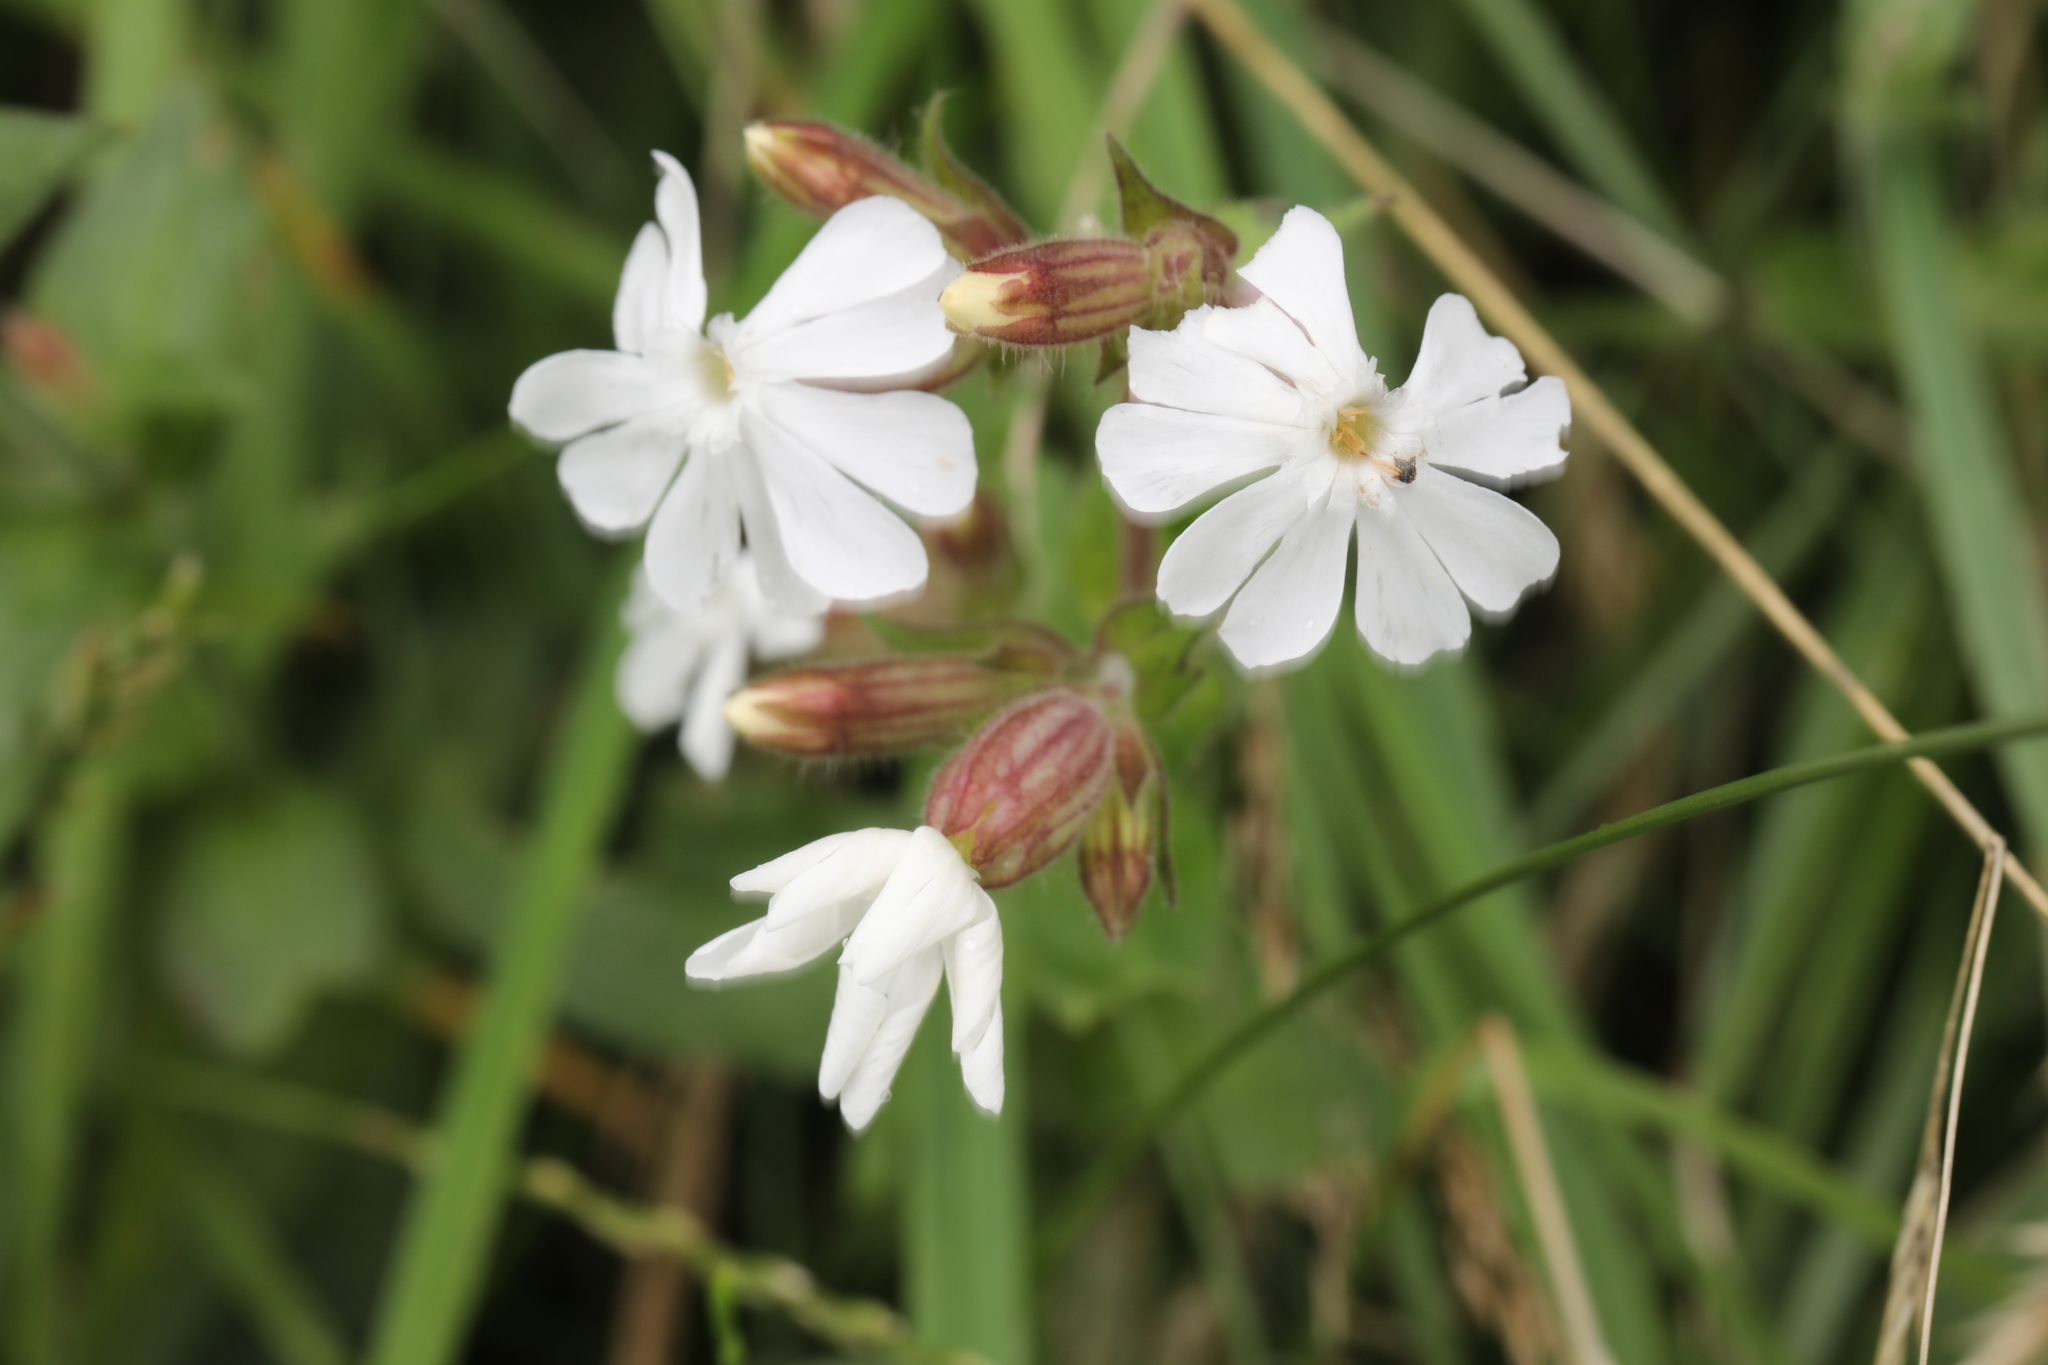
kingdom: Plantae
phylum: Tracheophyta
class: Magnoliopsida
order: Caryophyllales
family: Caryophyllaceae
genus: Silene
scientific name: Silene latifolia
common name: White campion
